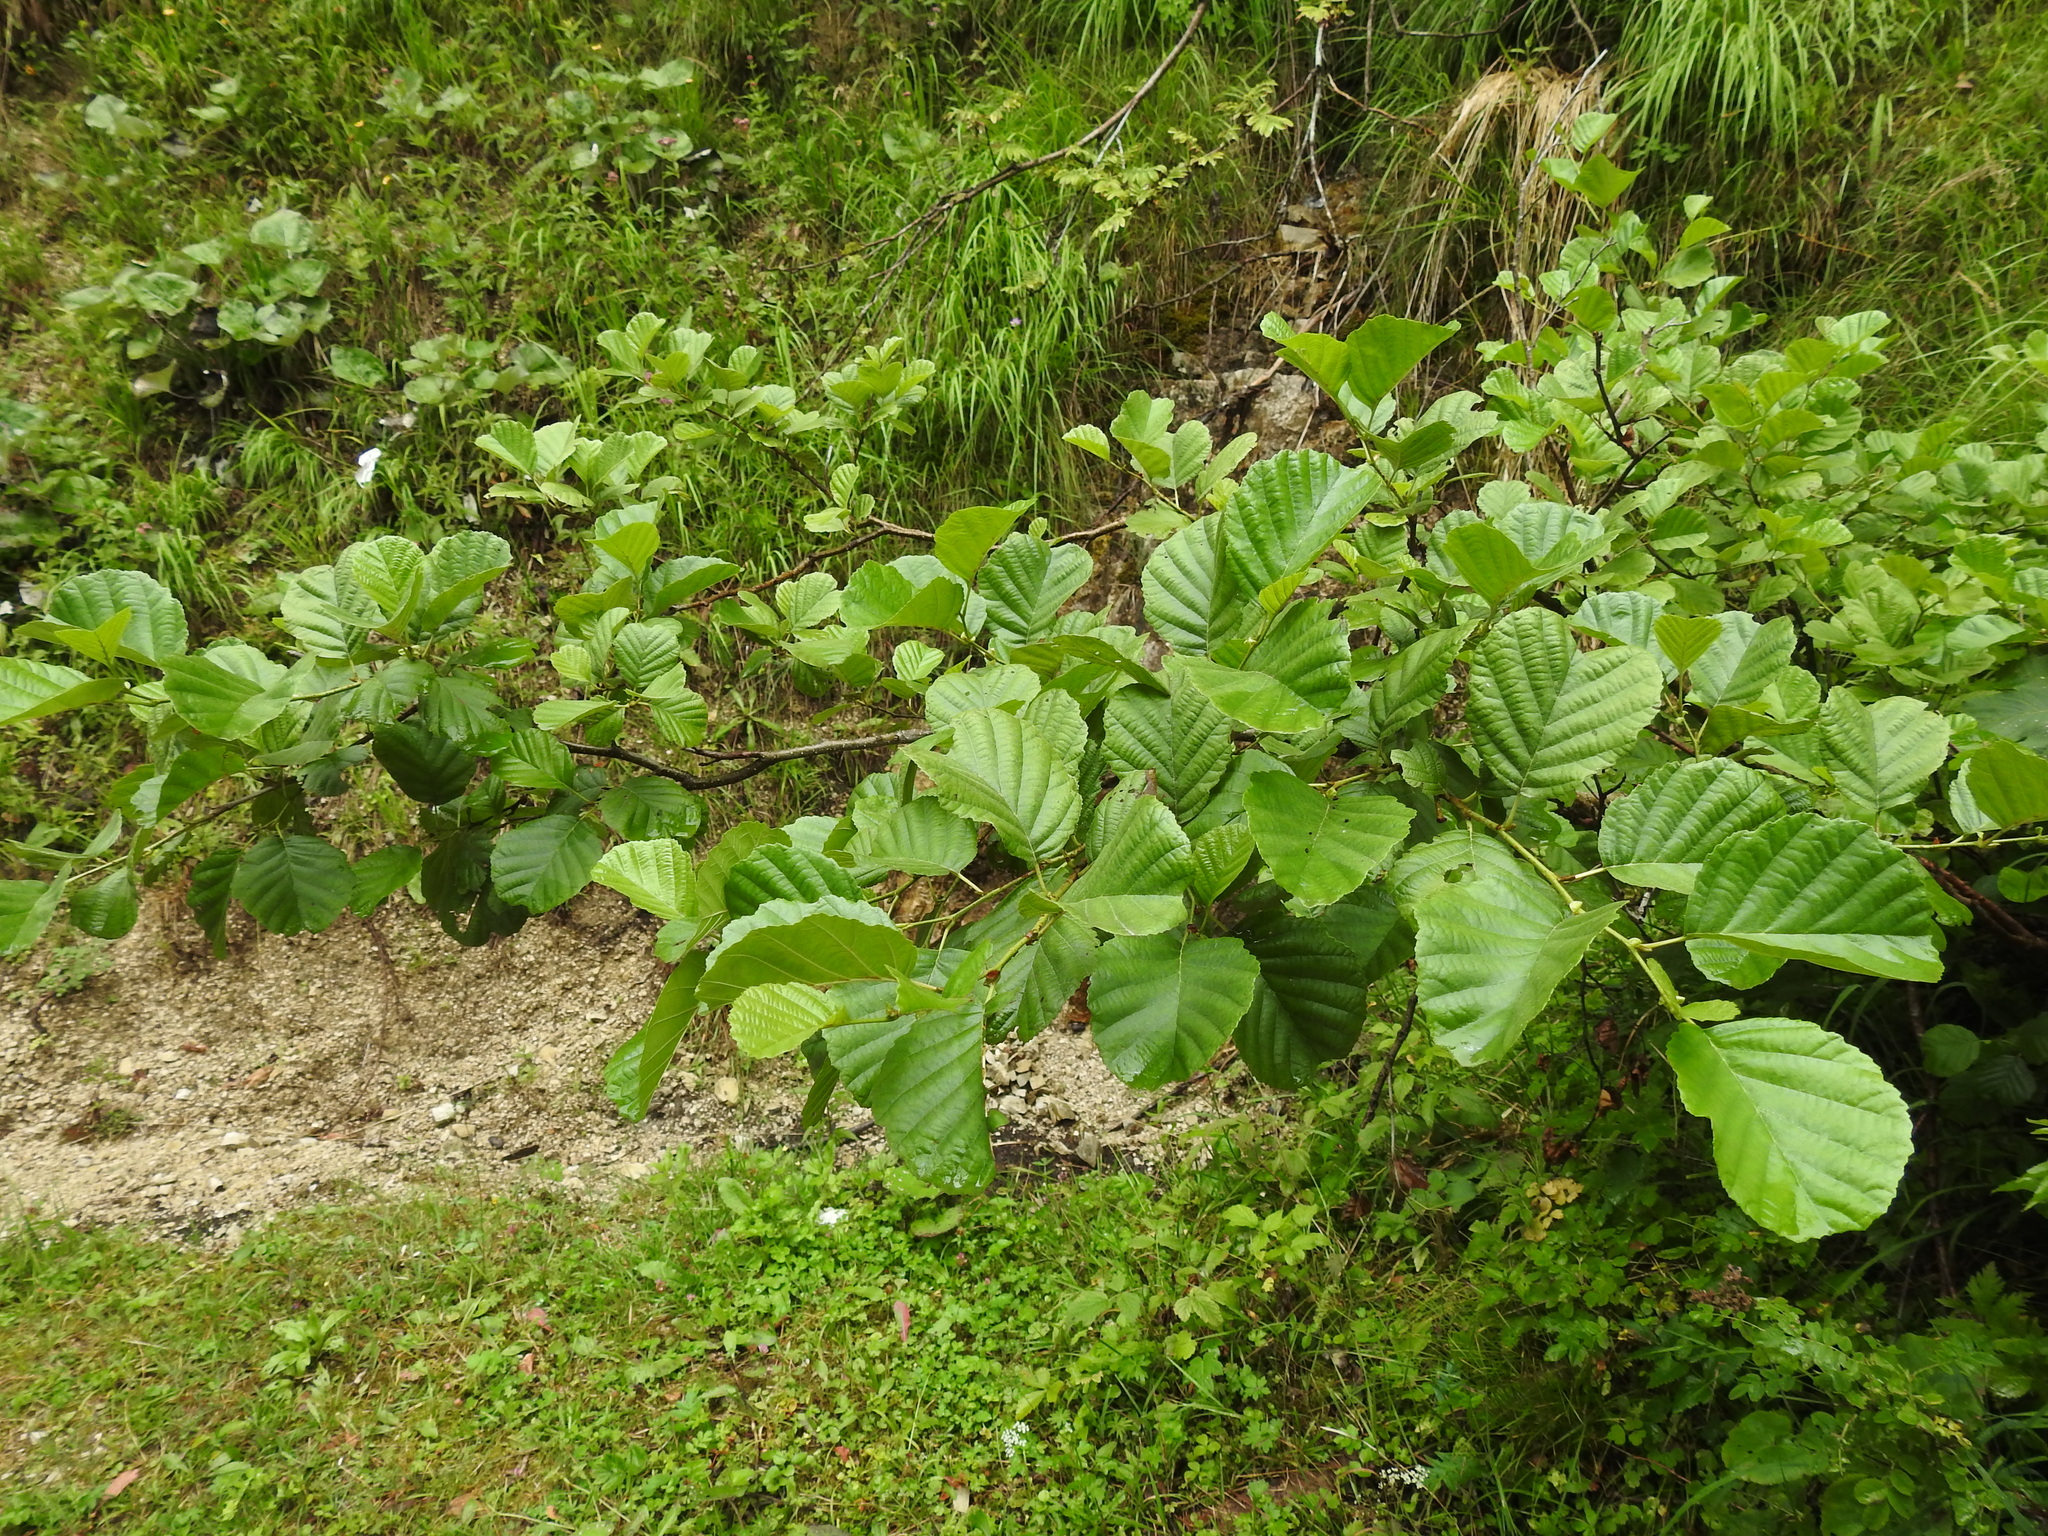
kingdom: Plantae
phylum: Tracheophyta
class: Magnoliopsida
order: Fagales
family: Betulaceae
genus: Alnus
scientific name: Alnus glutinosa
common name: Black alder
